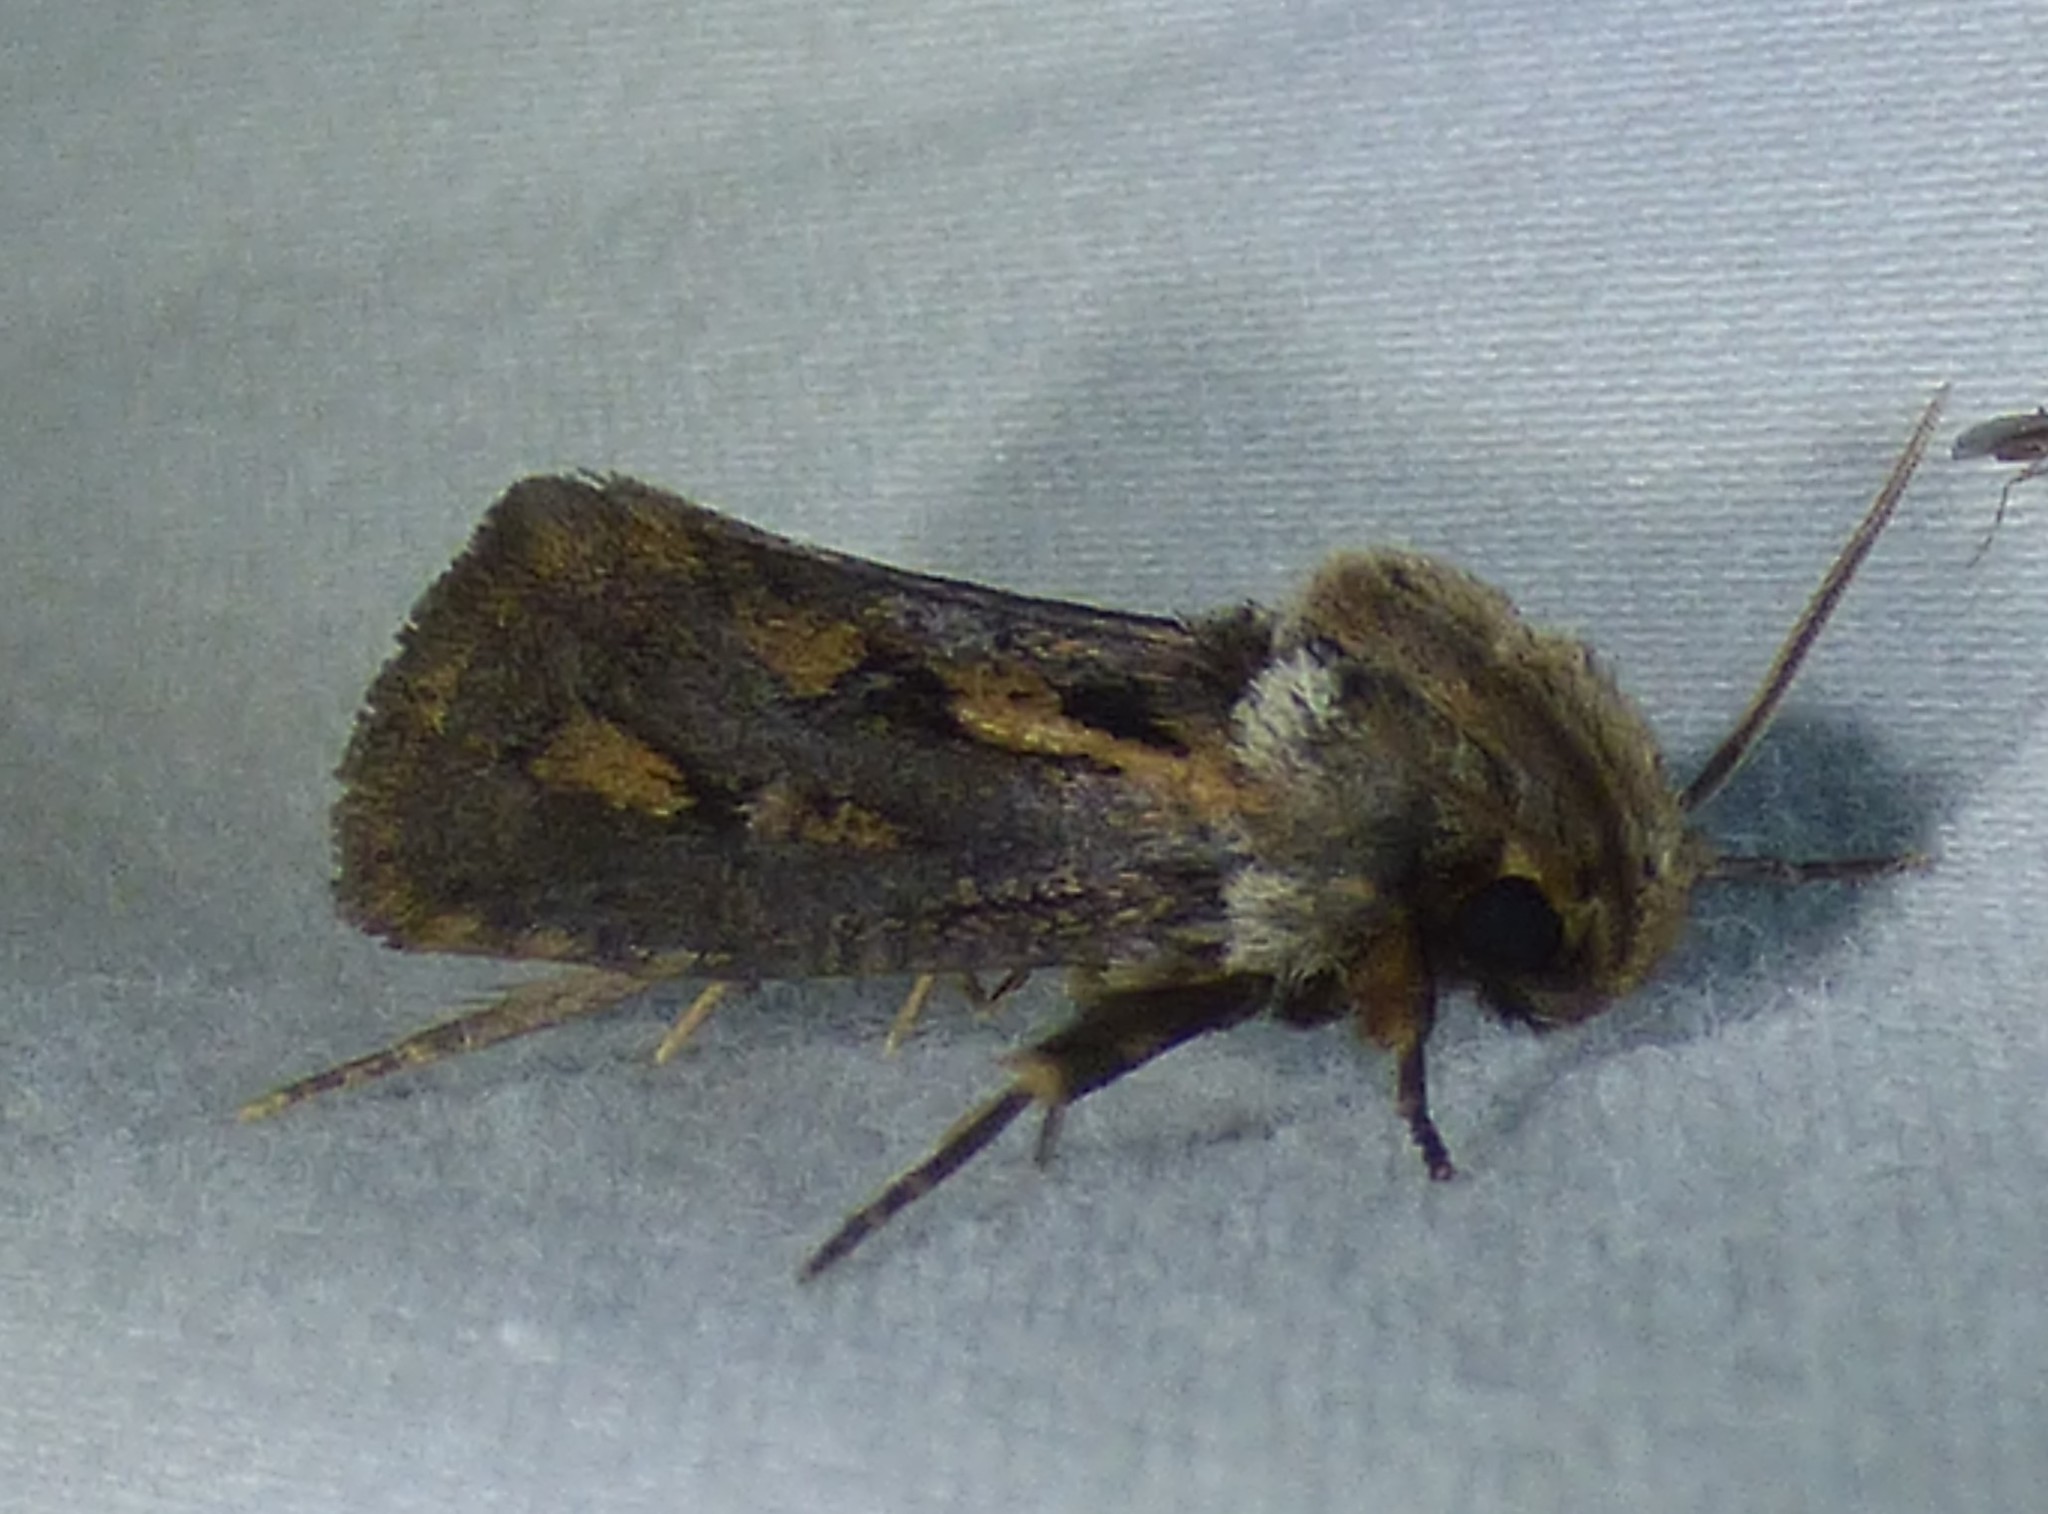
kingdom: Animalia
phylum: Arthropoda
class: Insecta
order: Lepidoptera
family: Tineidae
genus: Acrolophus
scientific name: Acrolophus popeanella
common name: Clemens' grass tubeworm moth
